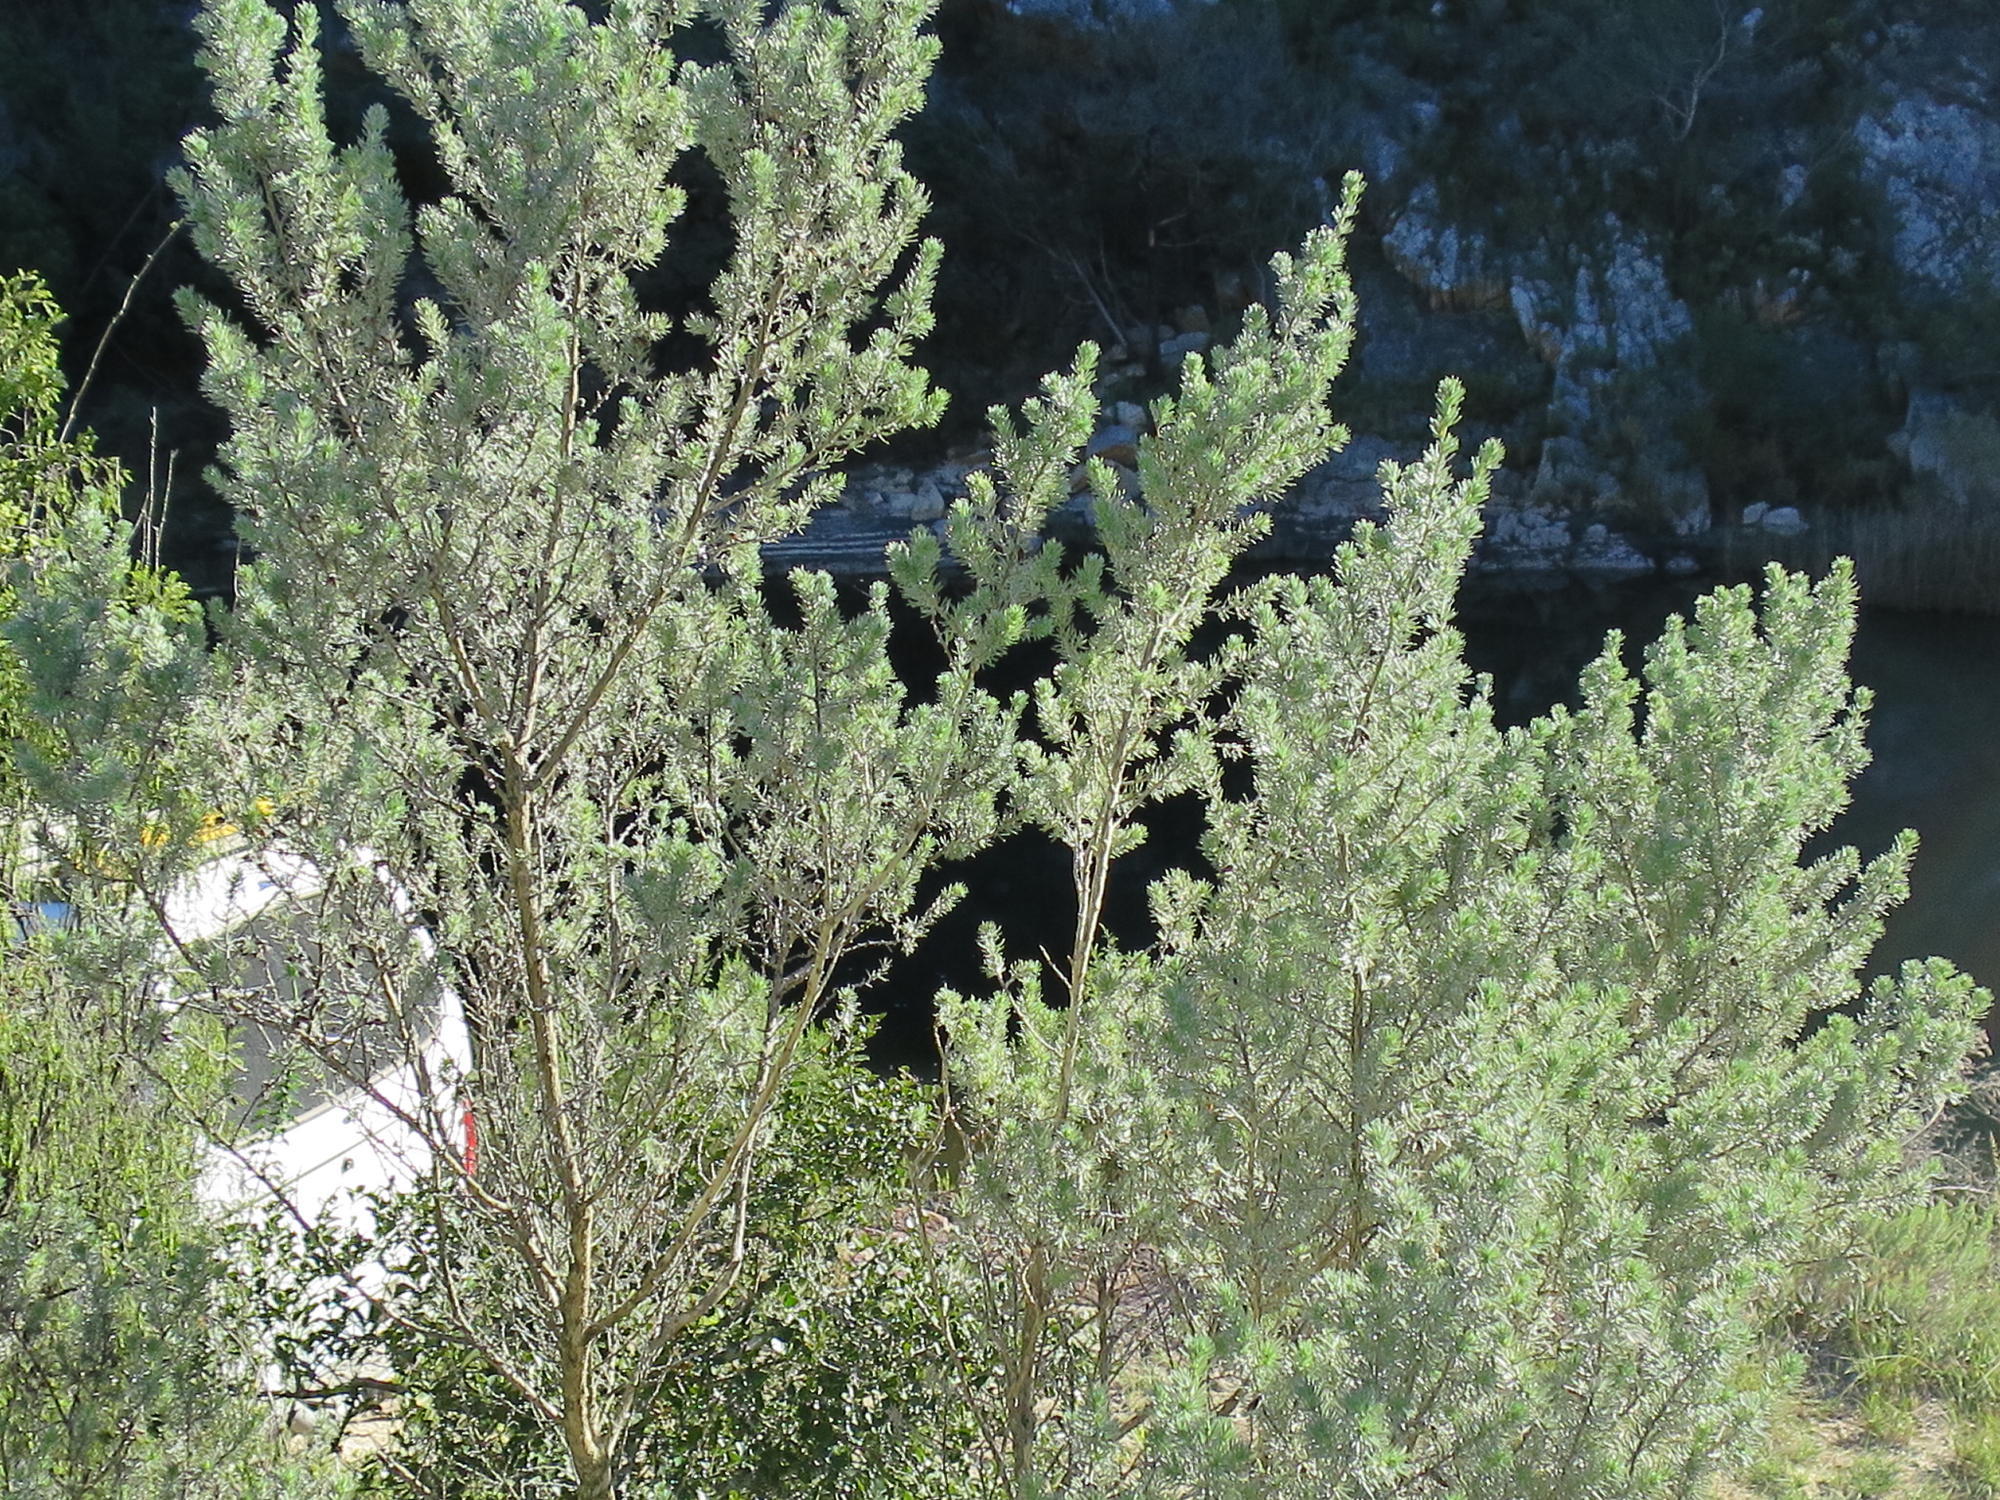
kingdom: Plantae
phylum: Tracheophyta
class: Magnoliopsida
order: Fabales
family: Fabaceae
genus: Aspalathus
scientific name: Aspalathus kougaensis
